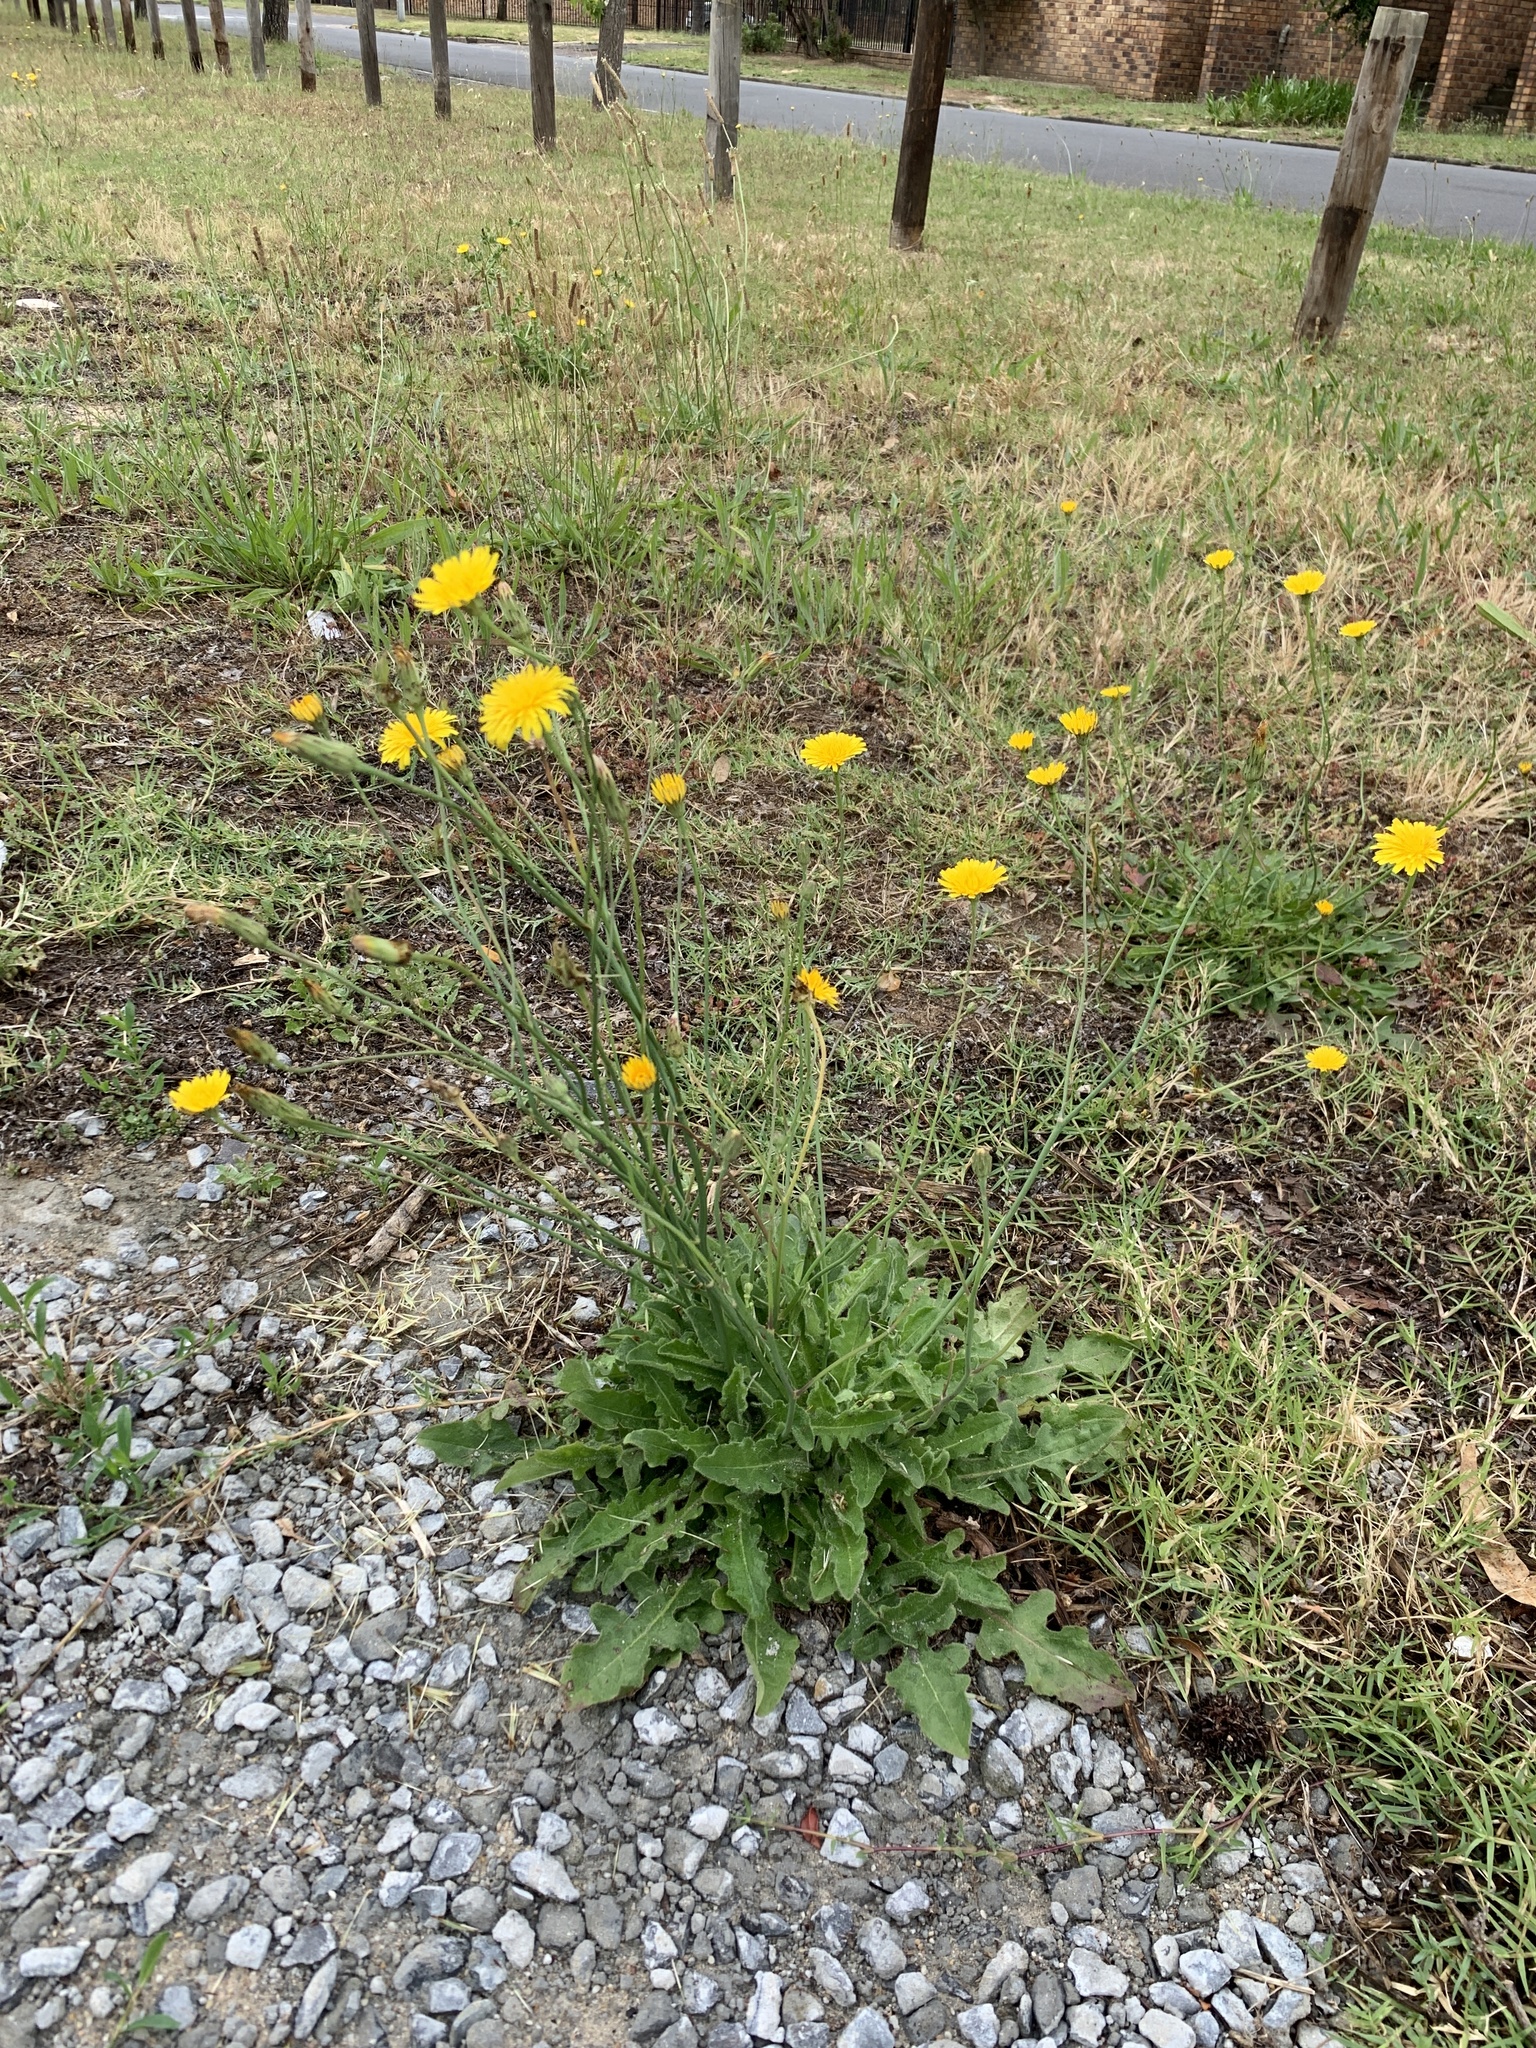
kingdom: Plantae
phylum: Tracheophyta
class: Magnoliopsida
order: Asterales
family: Asteraceae
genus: Hypochaeris
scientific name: Hypochaeris radicata
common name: Flatweed
